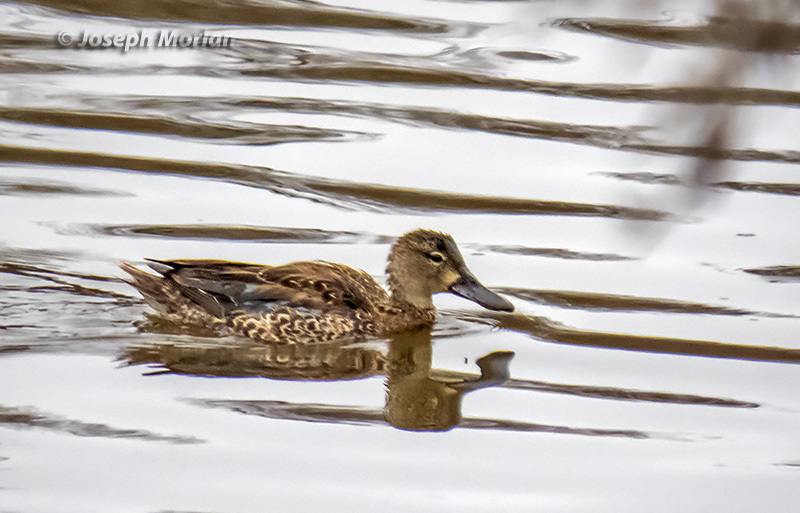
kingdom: Animalia
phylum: Chordata
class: Aves
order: Anseriformes
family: Anatidae
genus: Spatula
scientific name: Spatula cyanoptera
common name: Cinnamon teal
